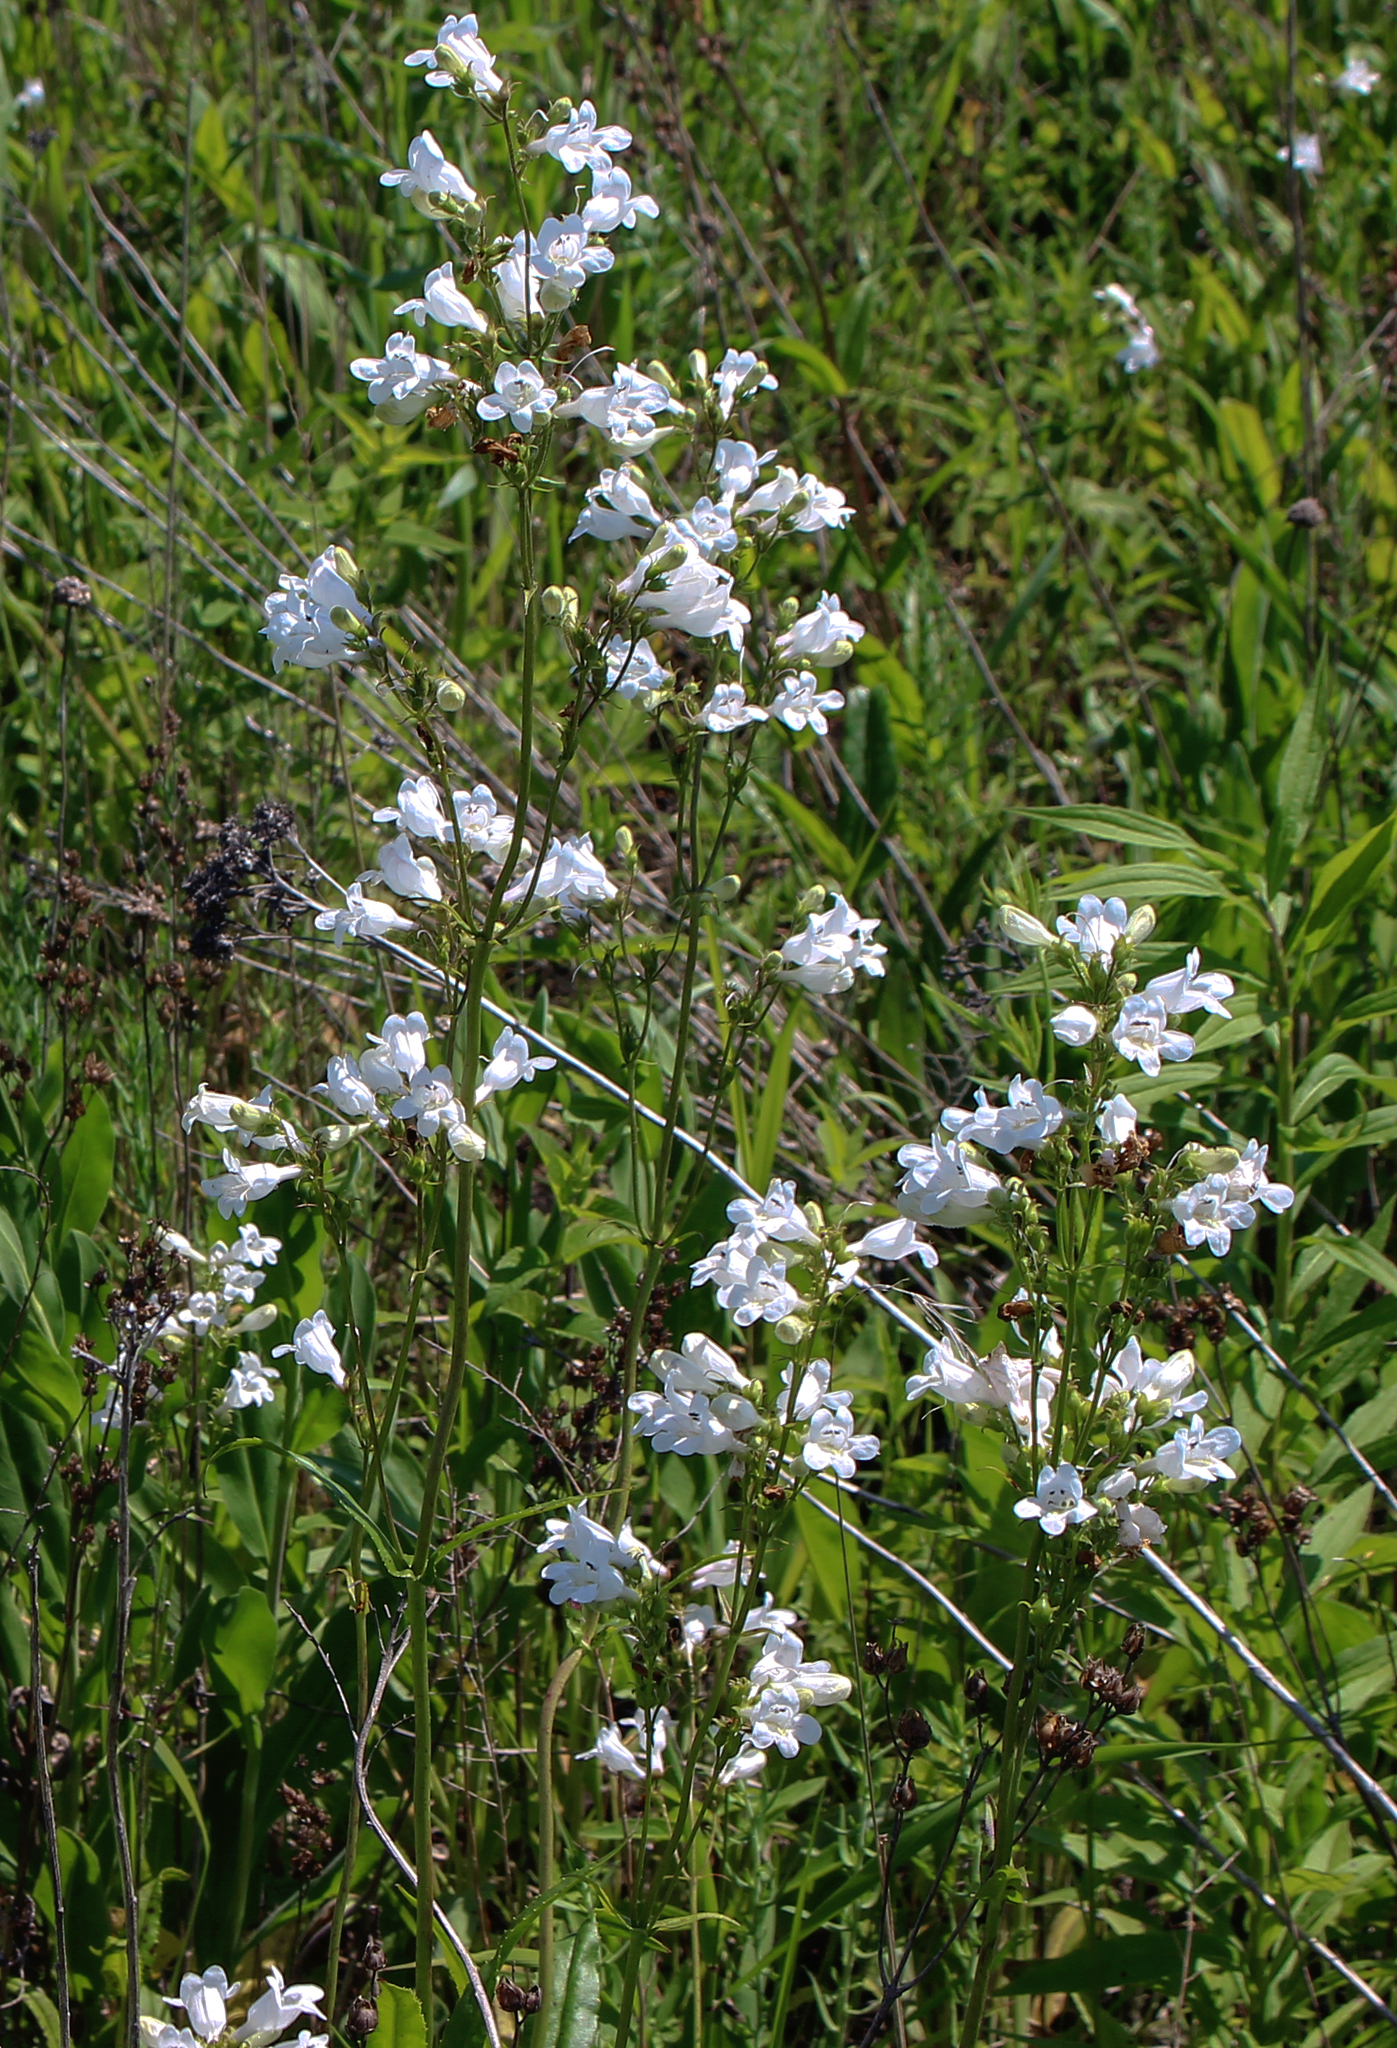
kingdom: Plantae
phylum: Tracheophyta
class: Magnoliopsida
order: Lamiales
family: Plantaginaceae
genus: Penstemon
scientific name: Penstemon digitalis
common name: Foxglove beardtongue
